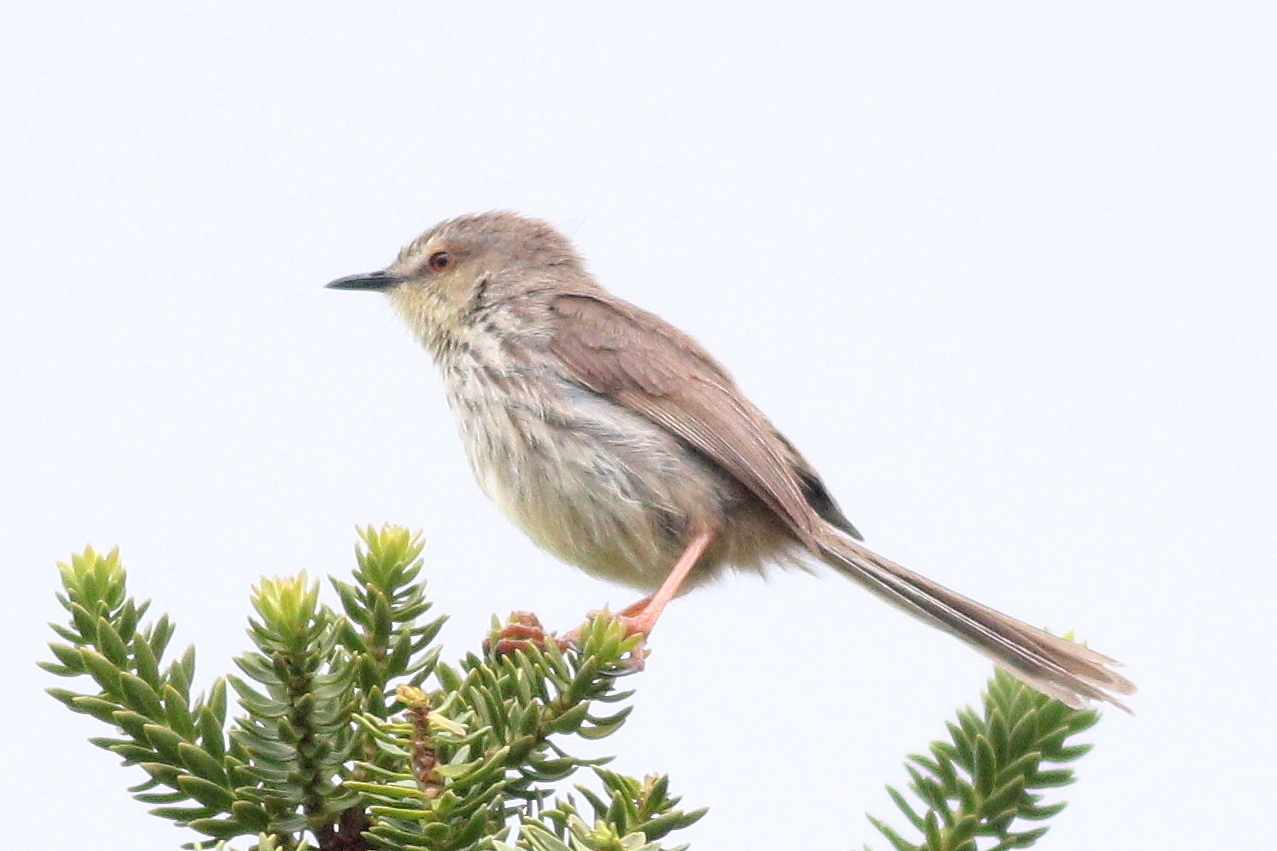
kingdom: Animalia
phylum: Chordata
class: Aves
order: Passeriformes
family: Cisticolidae
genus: Prinia
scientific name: Prinia hypoxantha
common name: Drakensberg prinia
